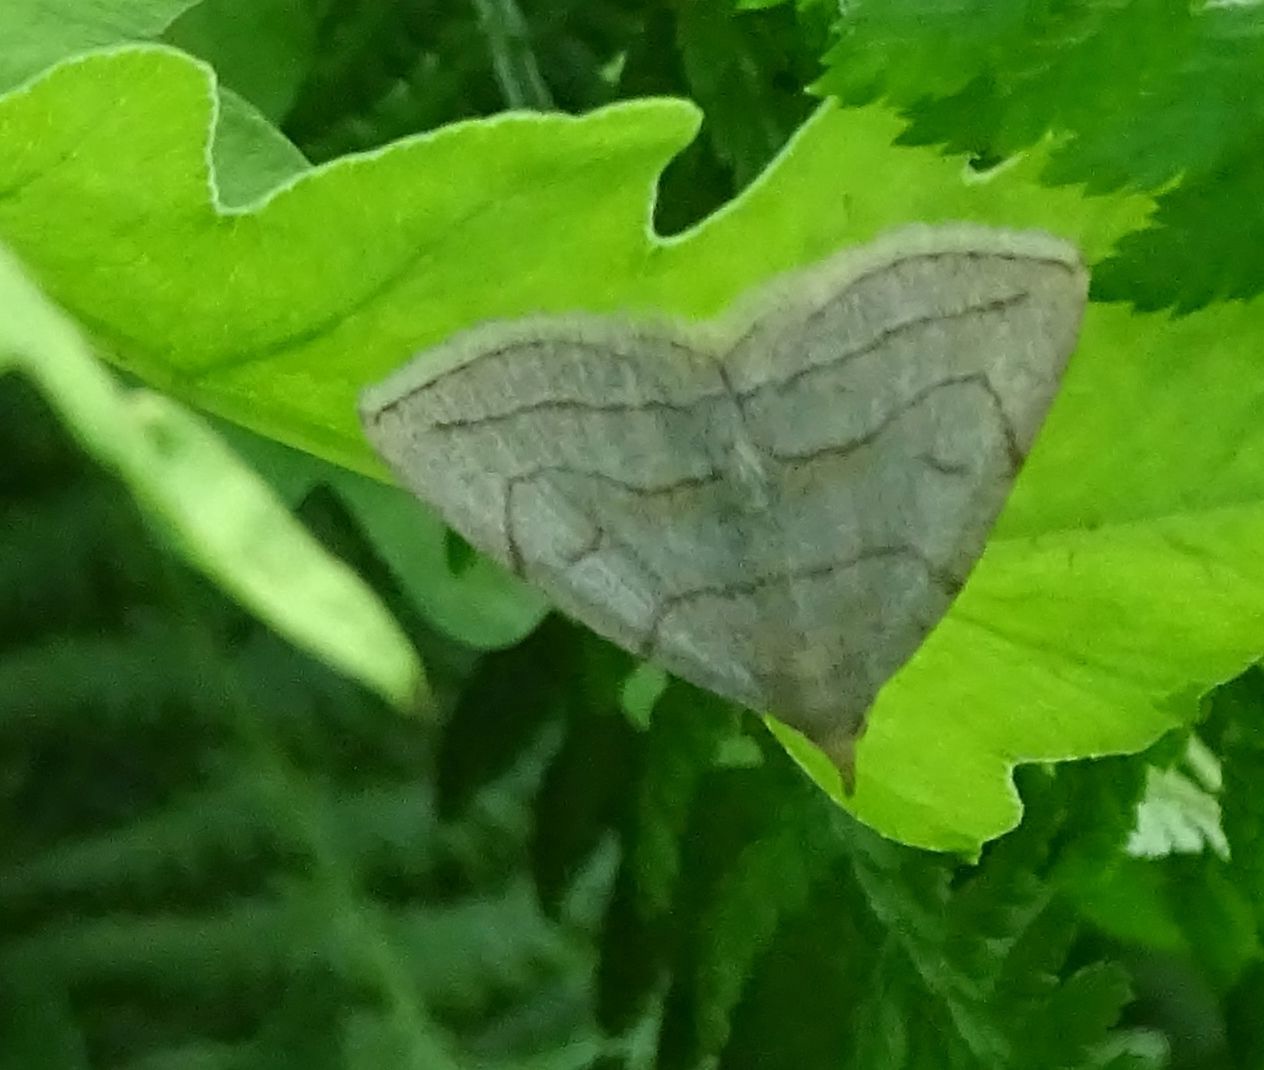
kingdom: Animalia
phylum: Arthropoda
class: Insecta
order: Lepidoptera
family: Erebidae
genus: Zanclognatha
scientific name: Zanclognatha pedipilalis
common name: Grayish fan-foot
